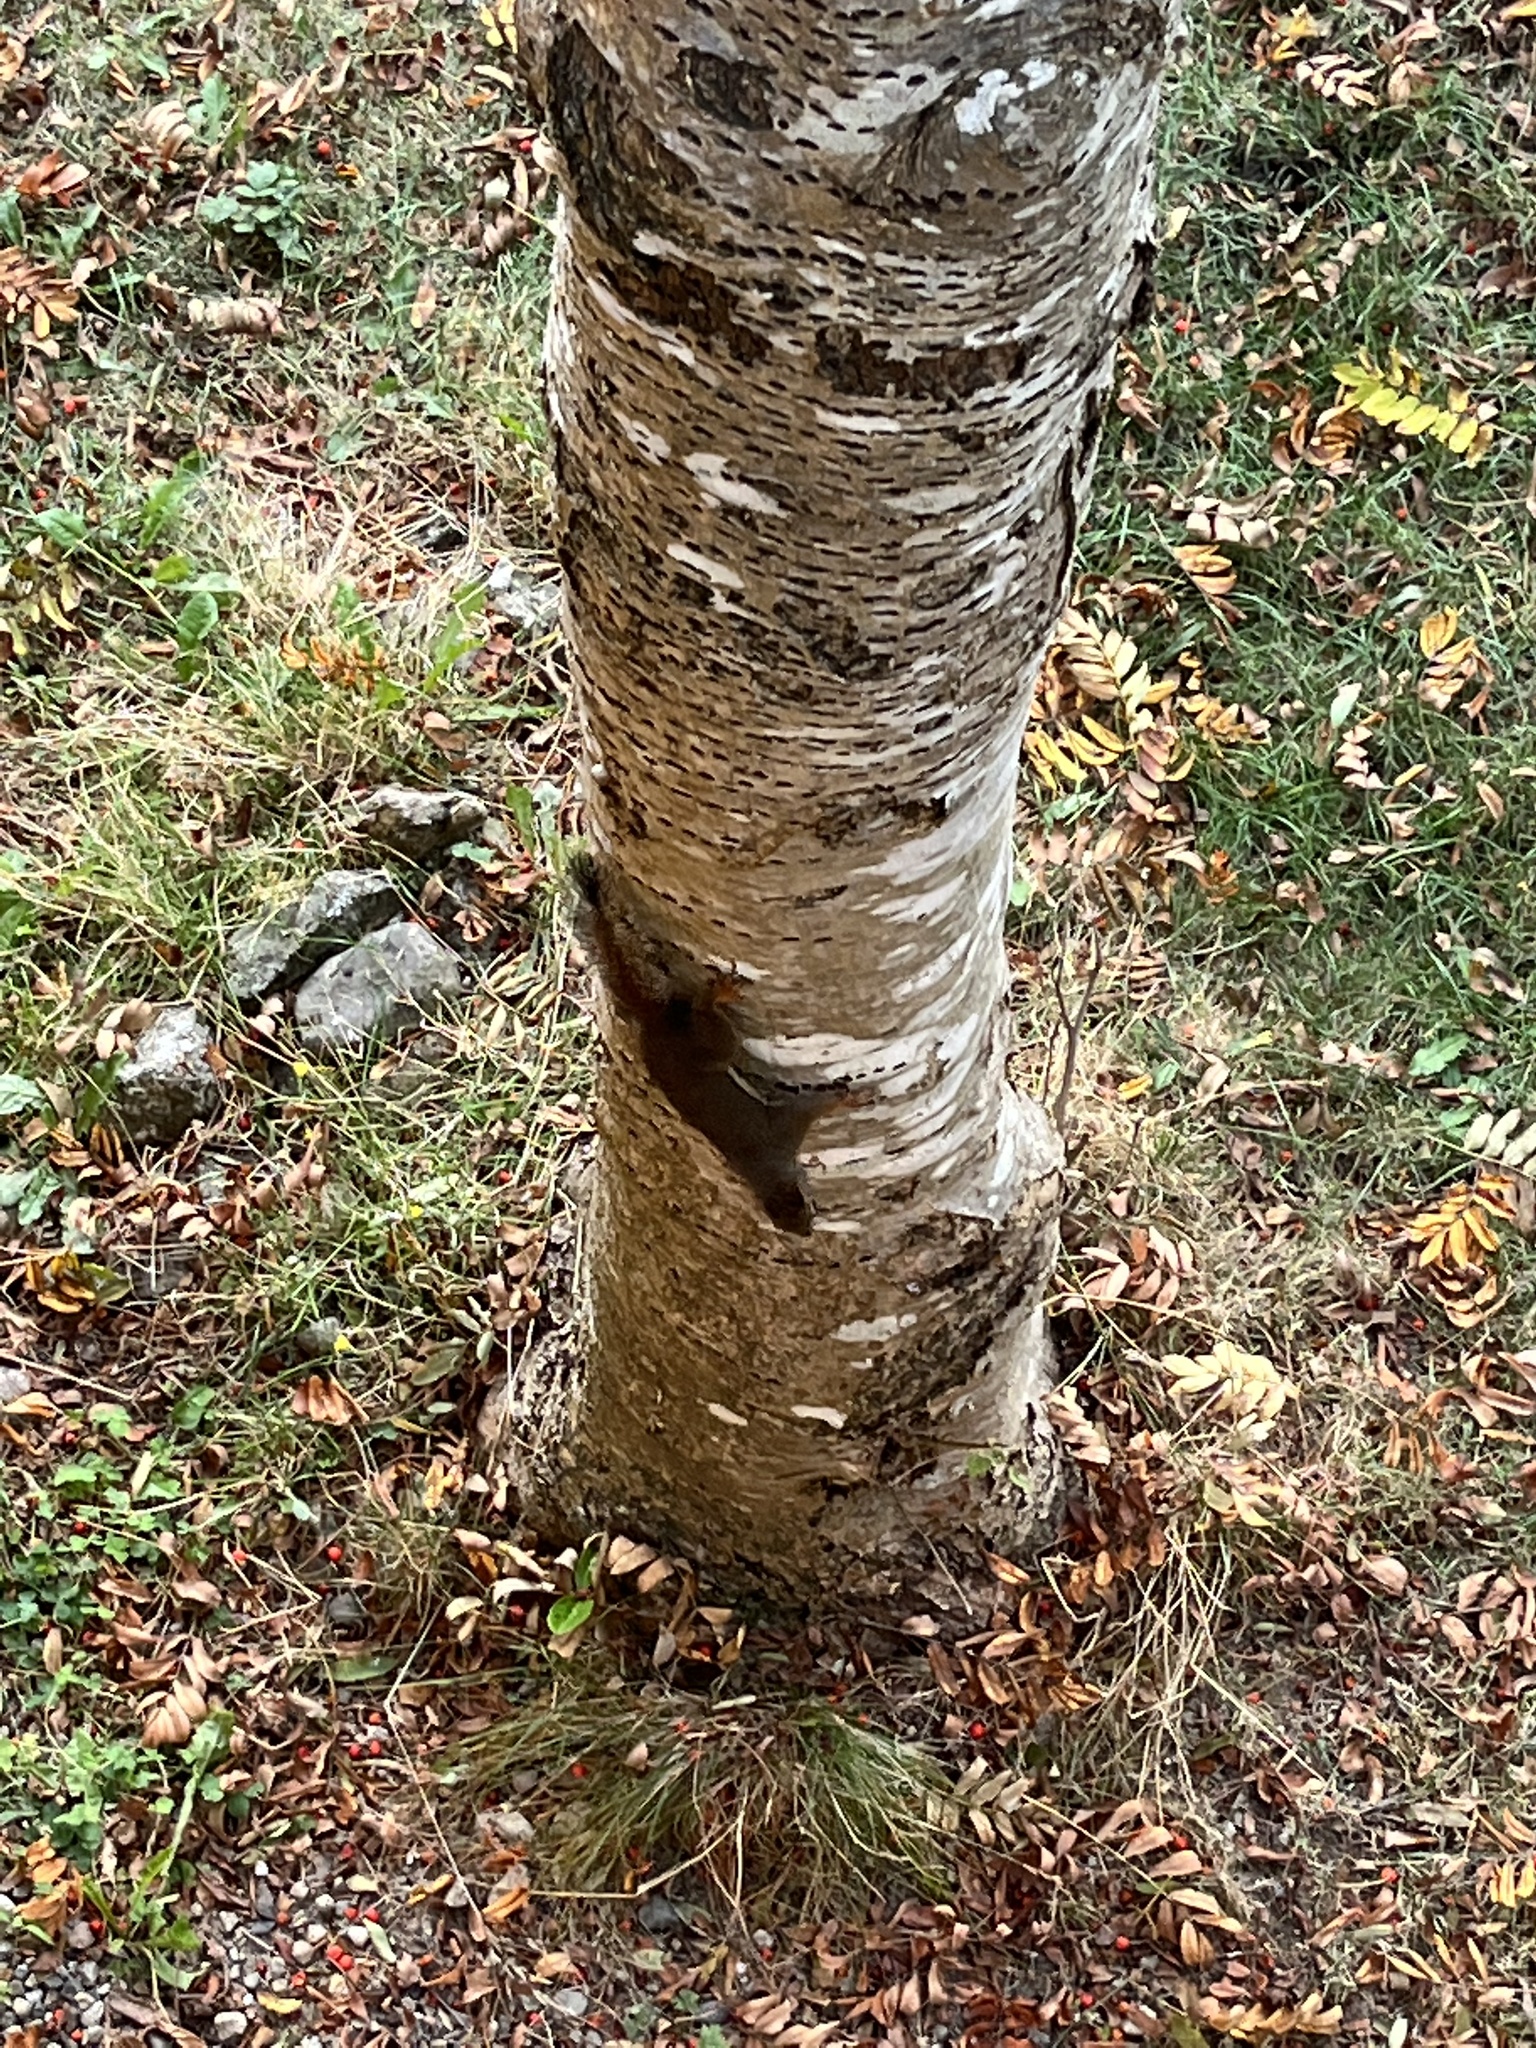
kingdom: Animalia
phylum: Chordata
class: Mammalia
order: Rodentia
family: Sciuridae
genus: Tamiasciurus
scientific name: Tamiasciurus douglasii
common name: Douglas's squirrel
